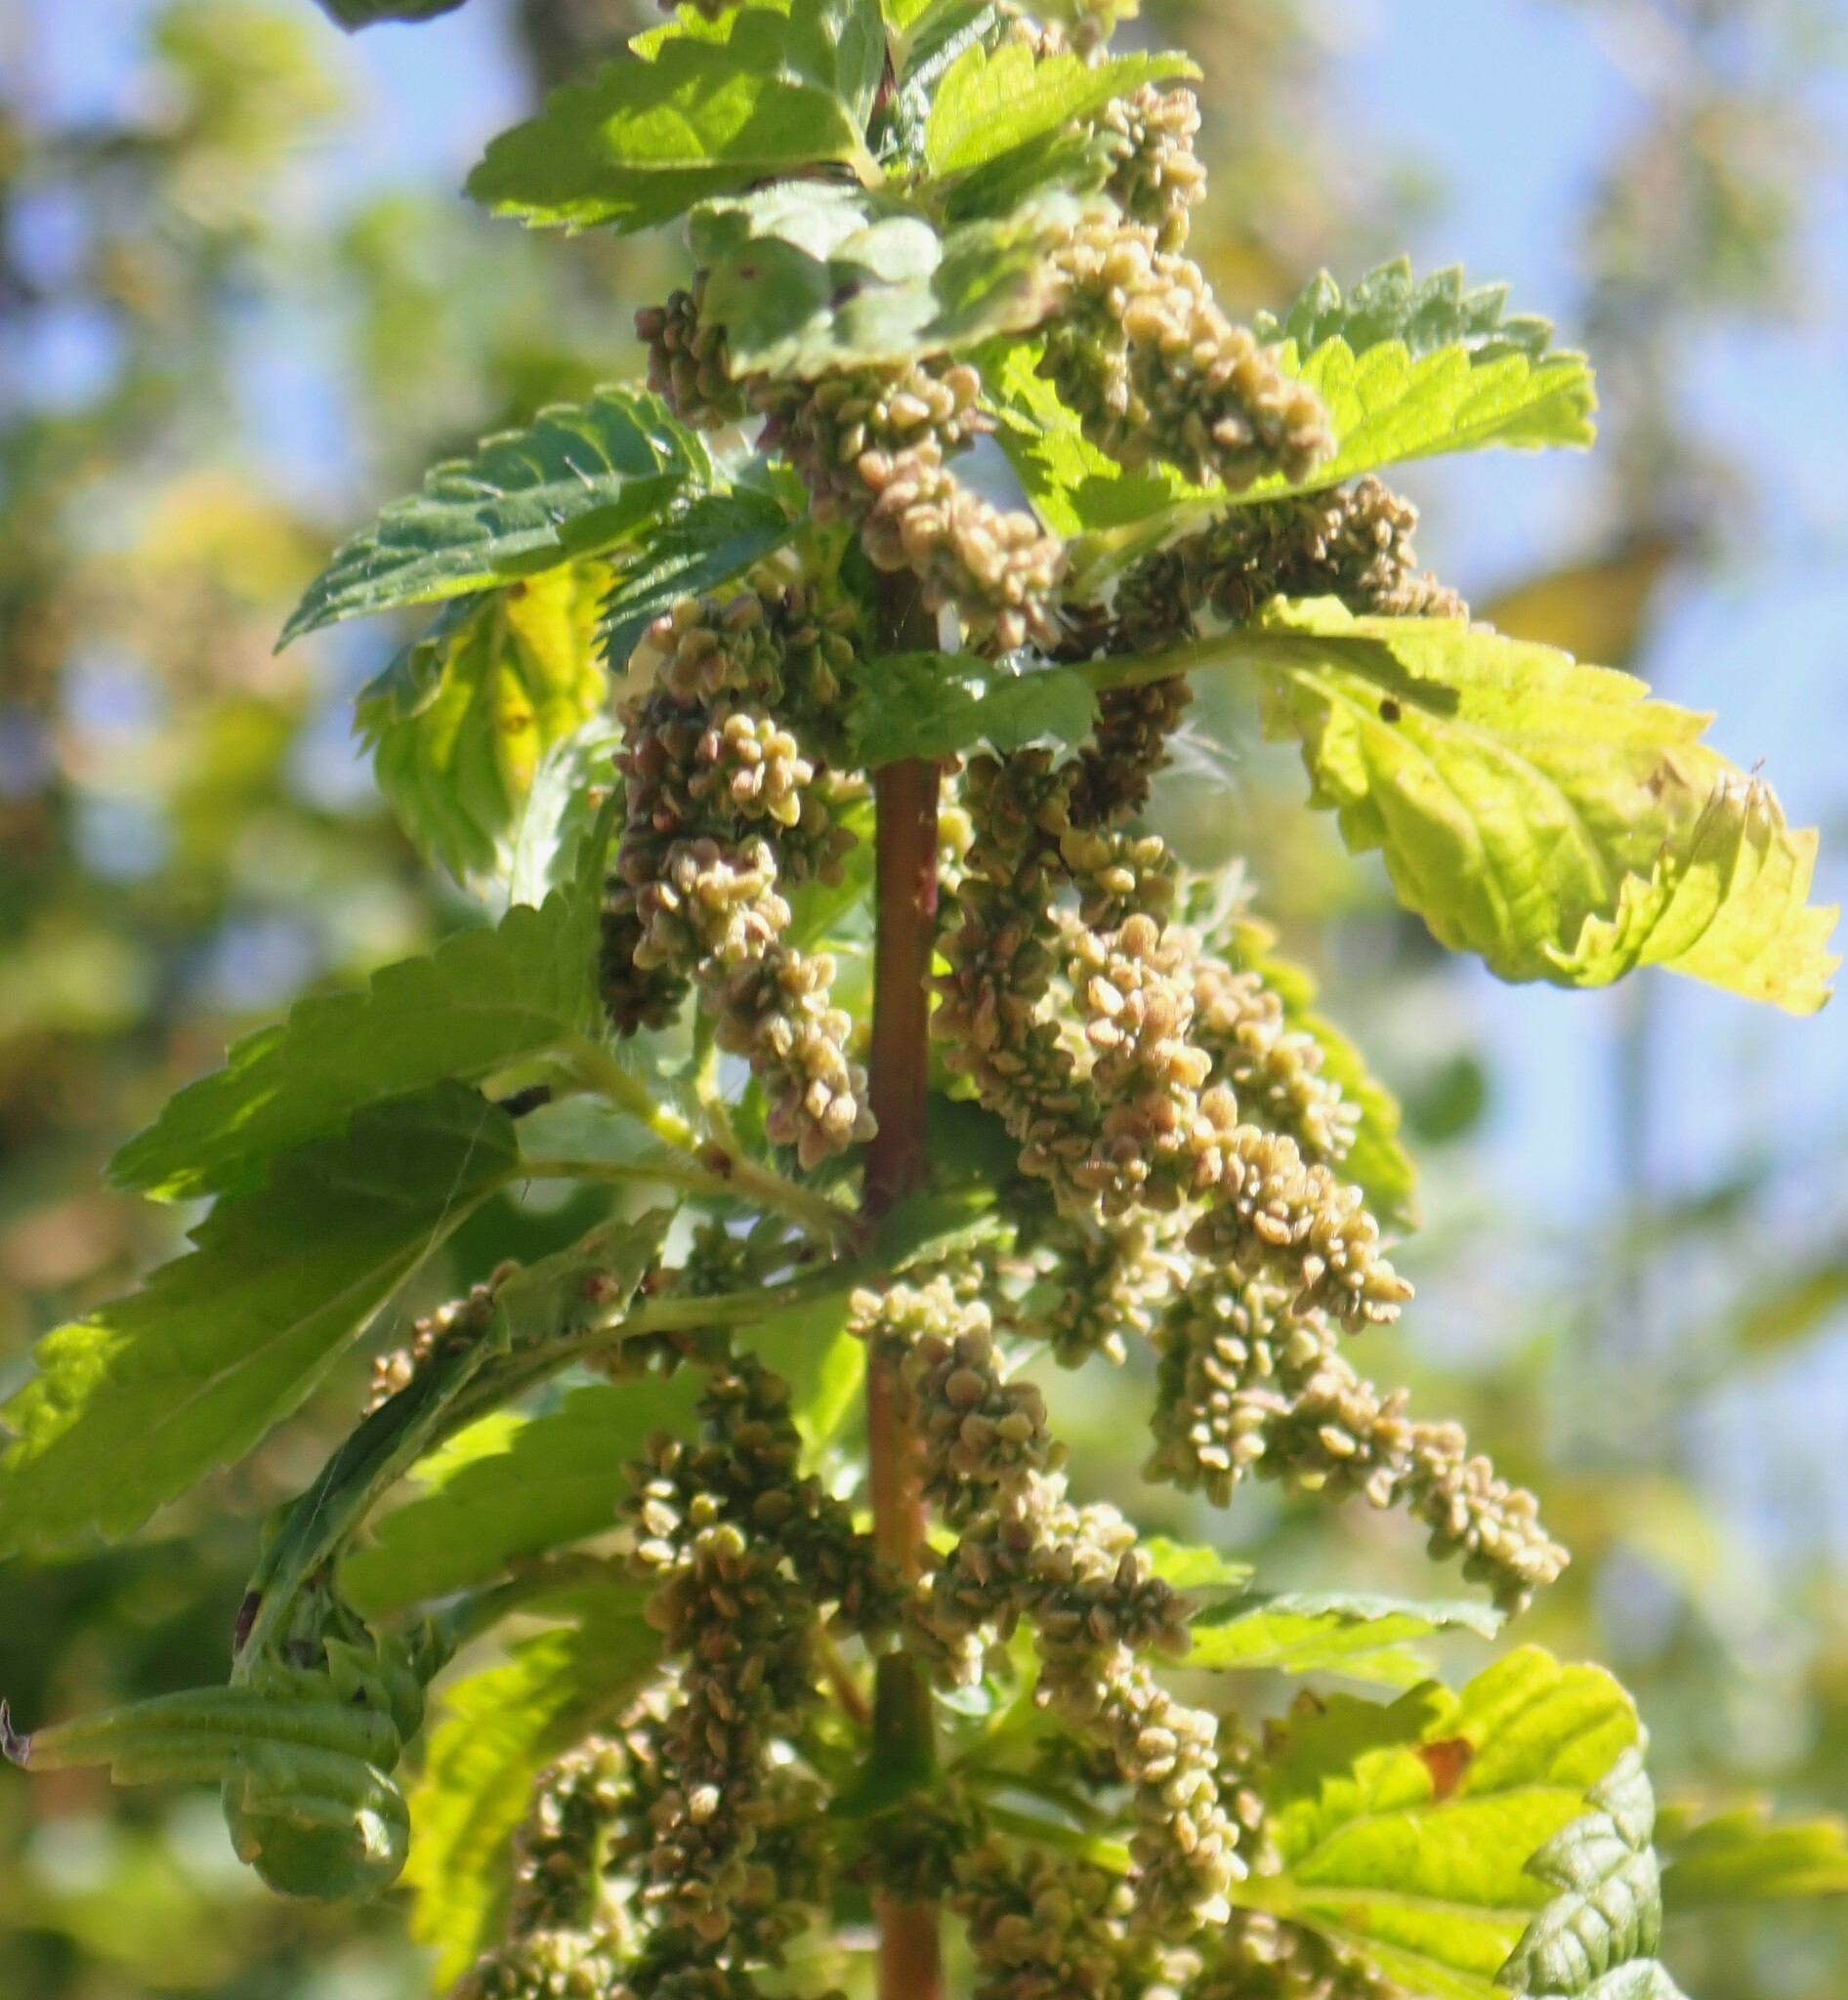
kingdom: Plantae
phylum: Tracheophyta
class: Magnoliopsida
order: Rosales
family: Urticaceae
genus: Urtica
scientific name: Urtica gracilis
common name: Slender stinging nettle
